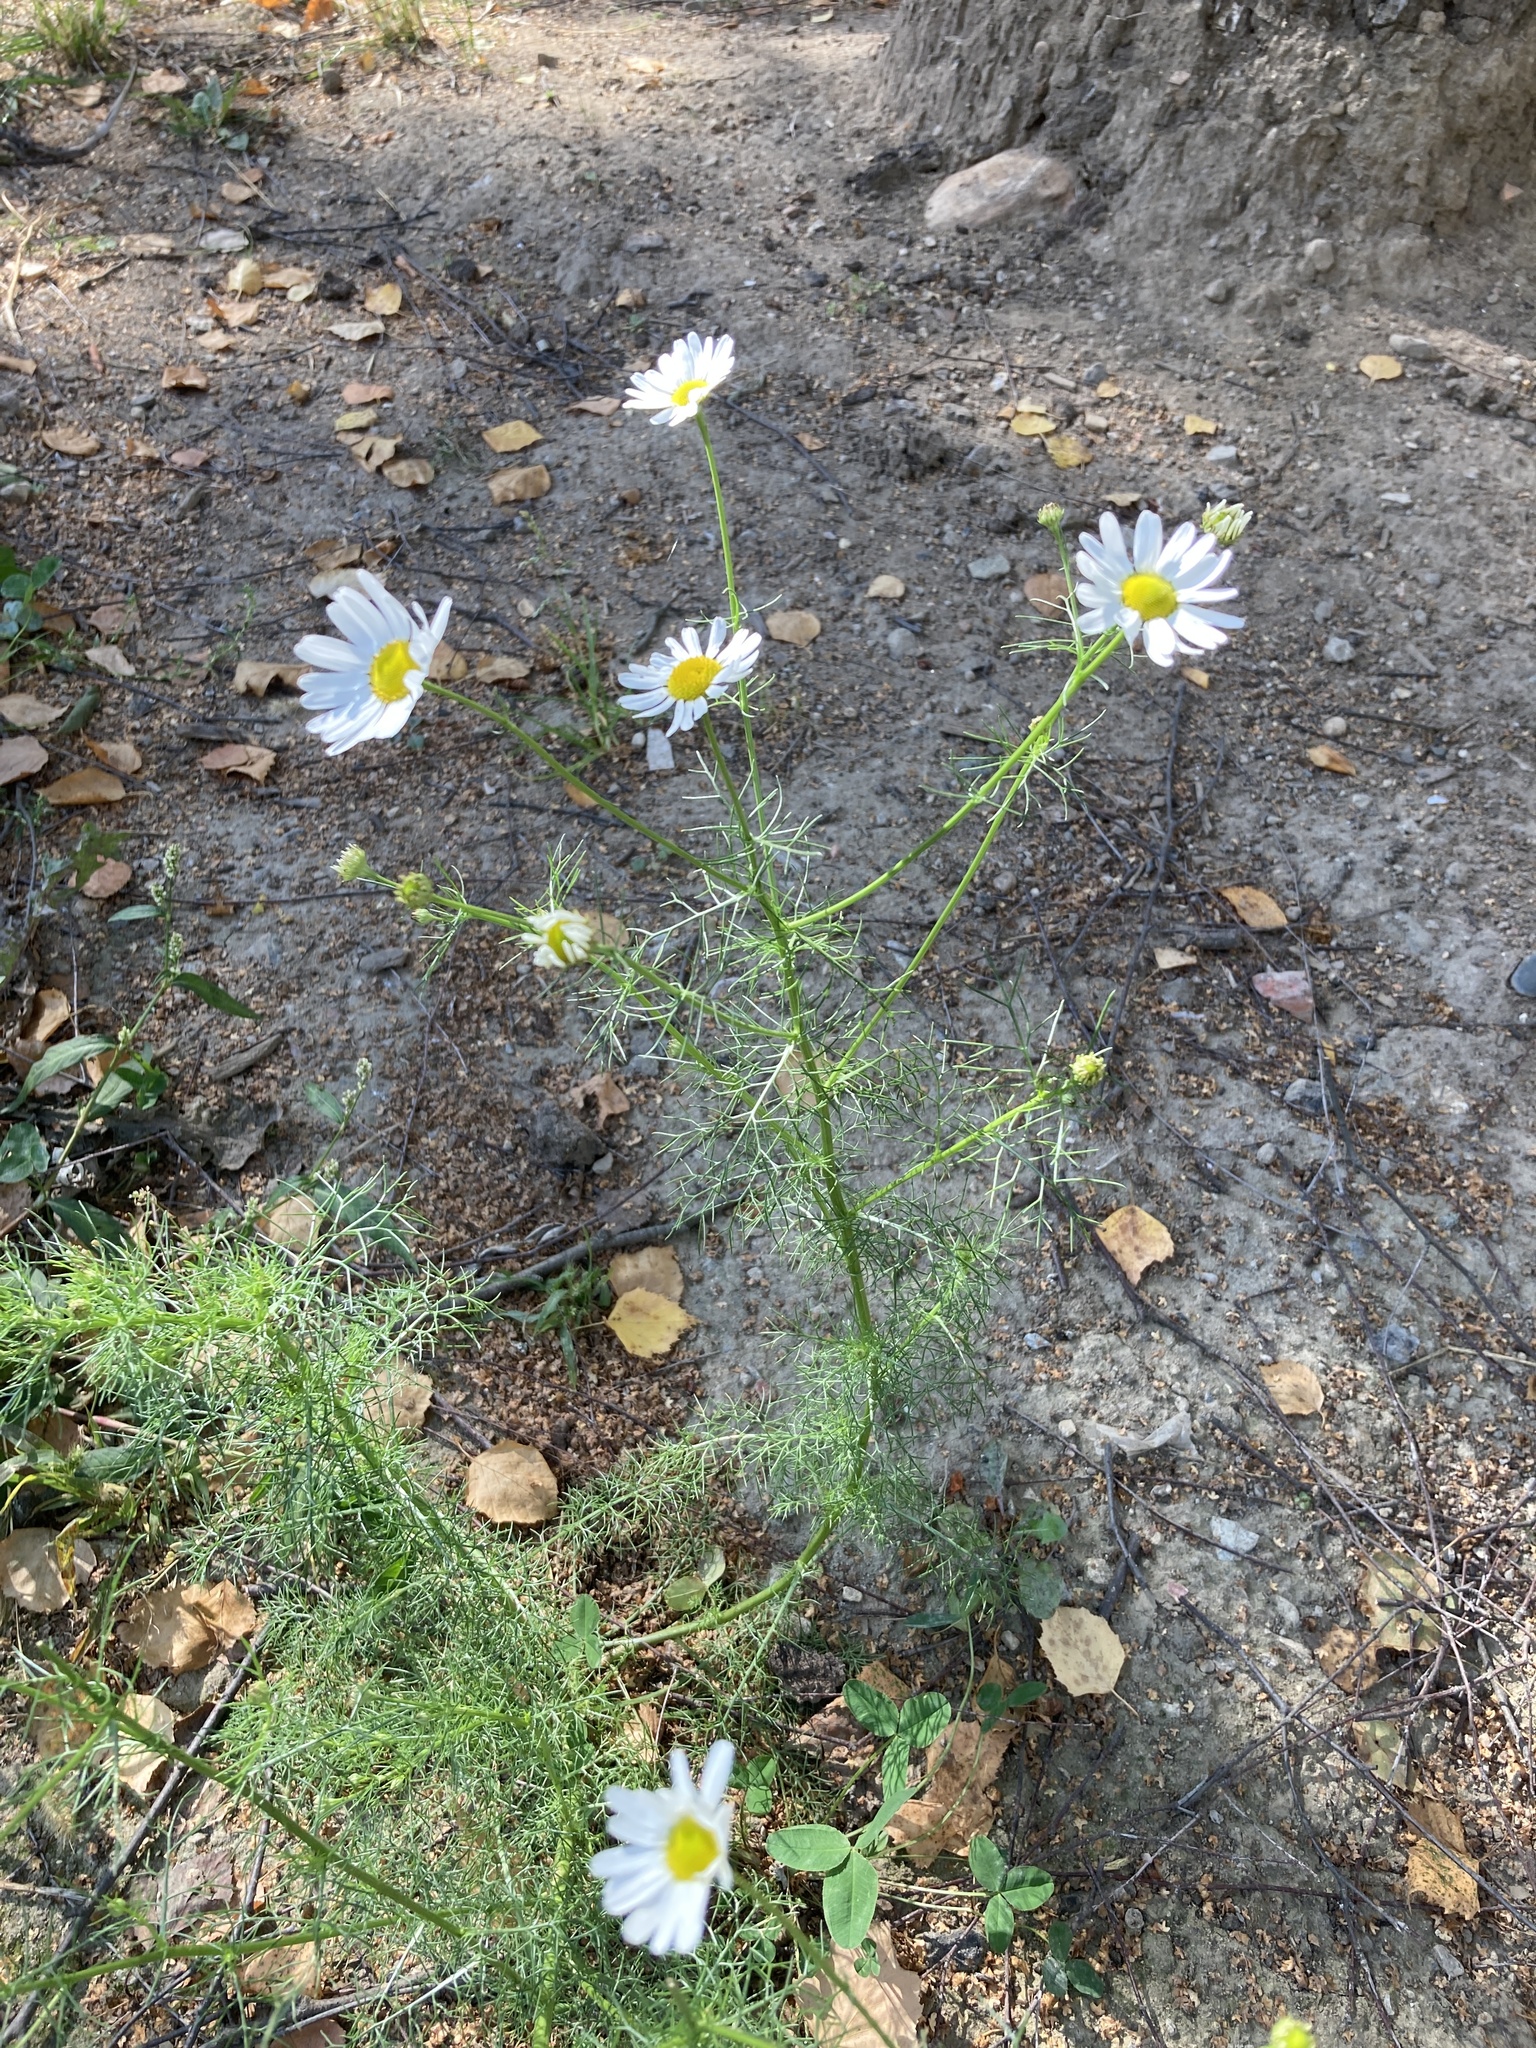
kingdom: Plantae
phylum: Tracheophyta
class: Magnoliopsida
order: Asterales
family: Asteraceae
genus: Tripleurospermum
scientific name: Tripleurospermum inodorum
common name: Scentless mayweed
